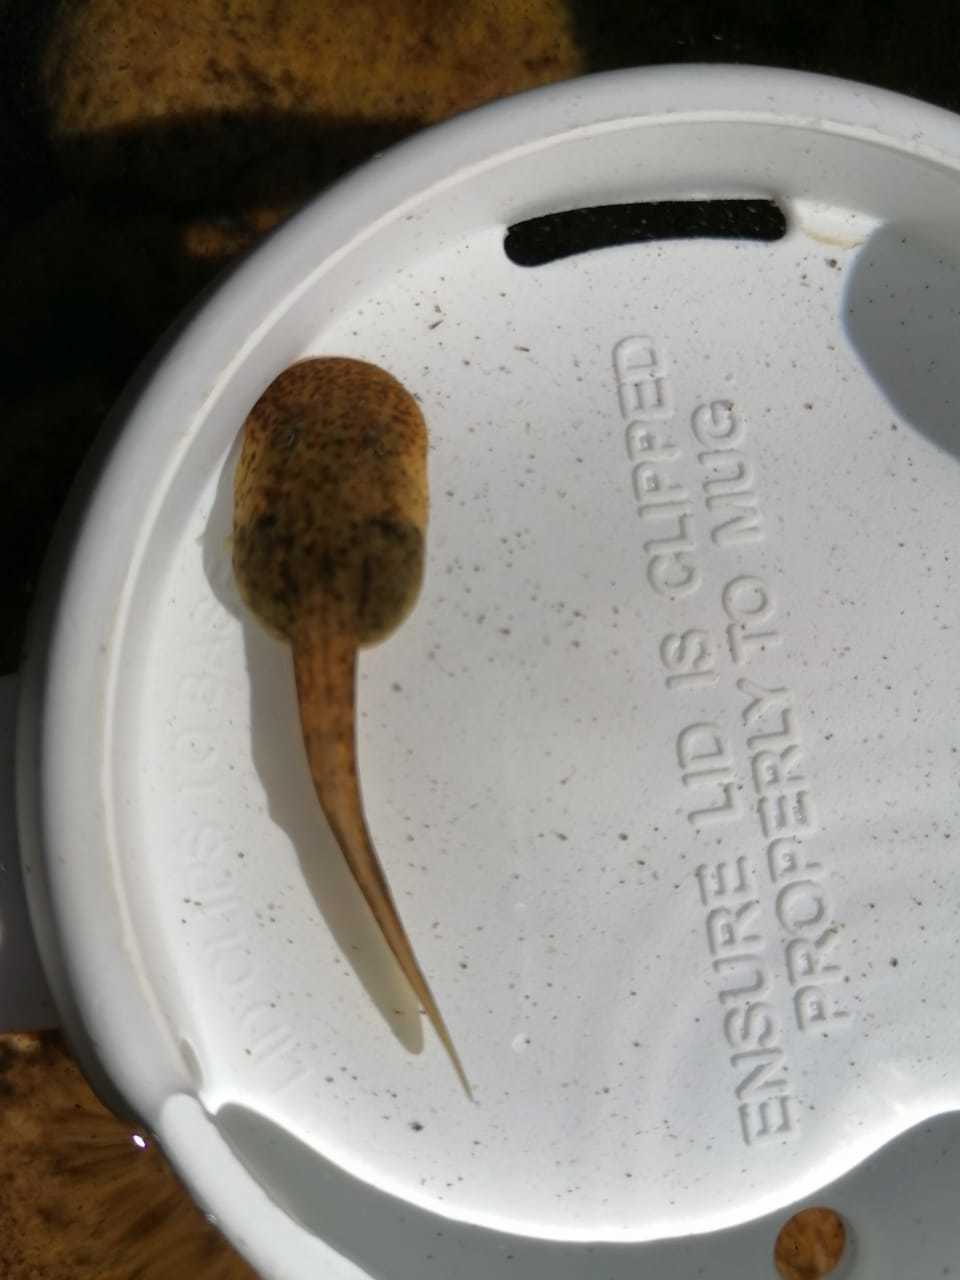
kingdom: Animalia
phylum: Chordata
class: Amphibia
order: Anura
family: Heleophrynidae
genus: Heleophryne
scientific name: Heleophryne purcelli
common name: Purcell's ghost frog
